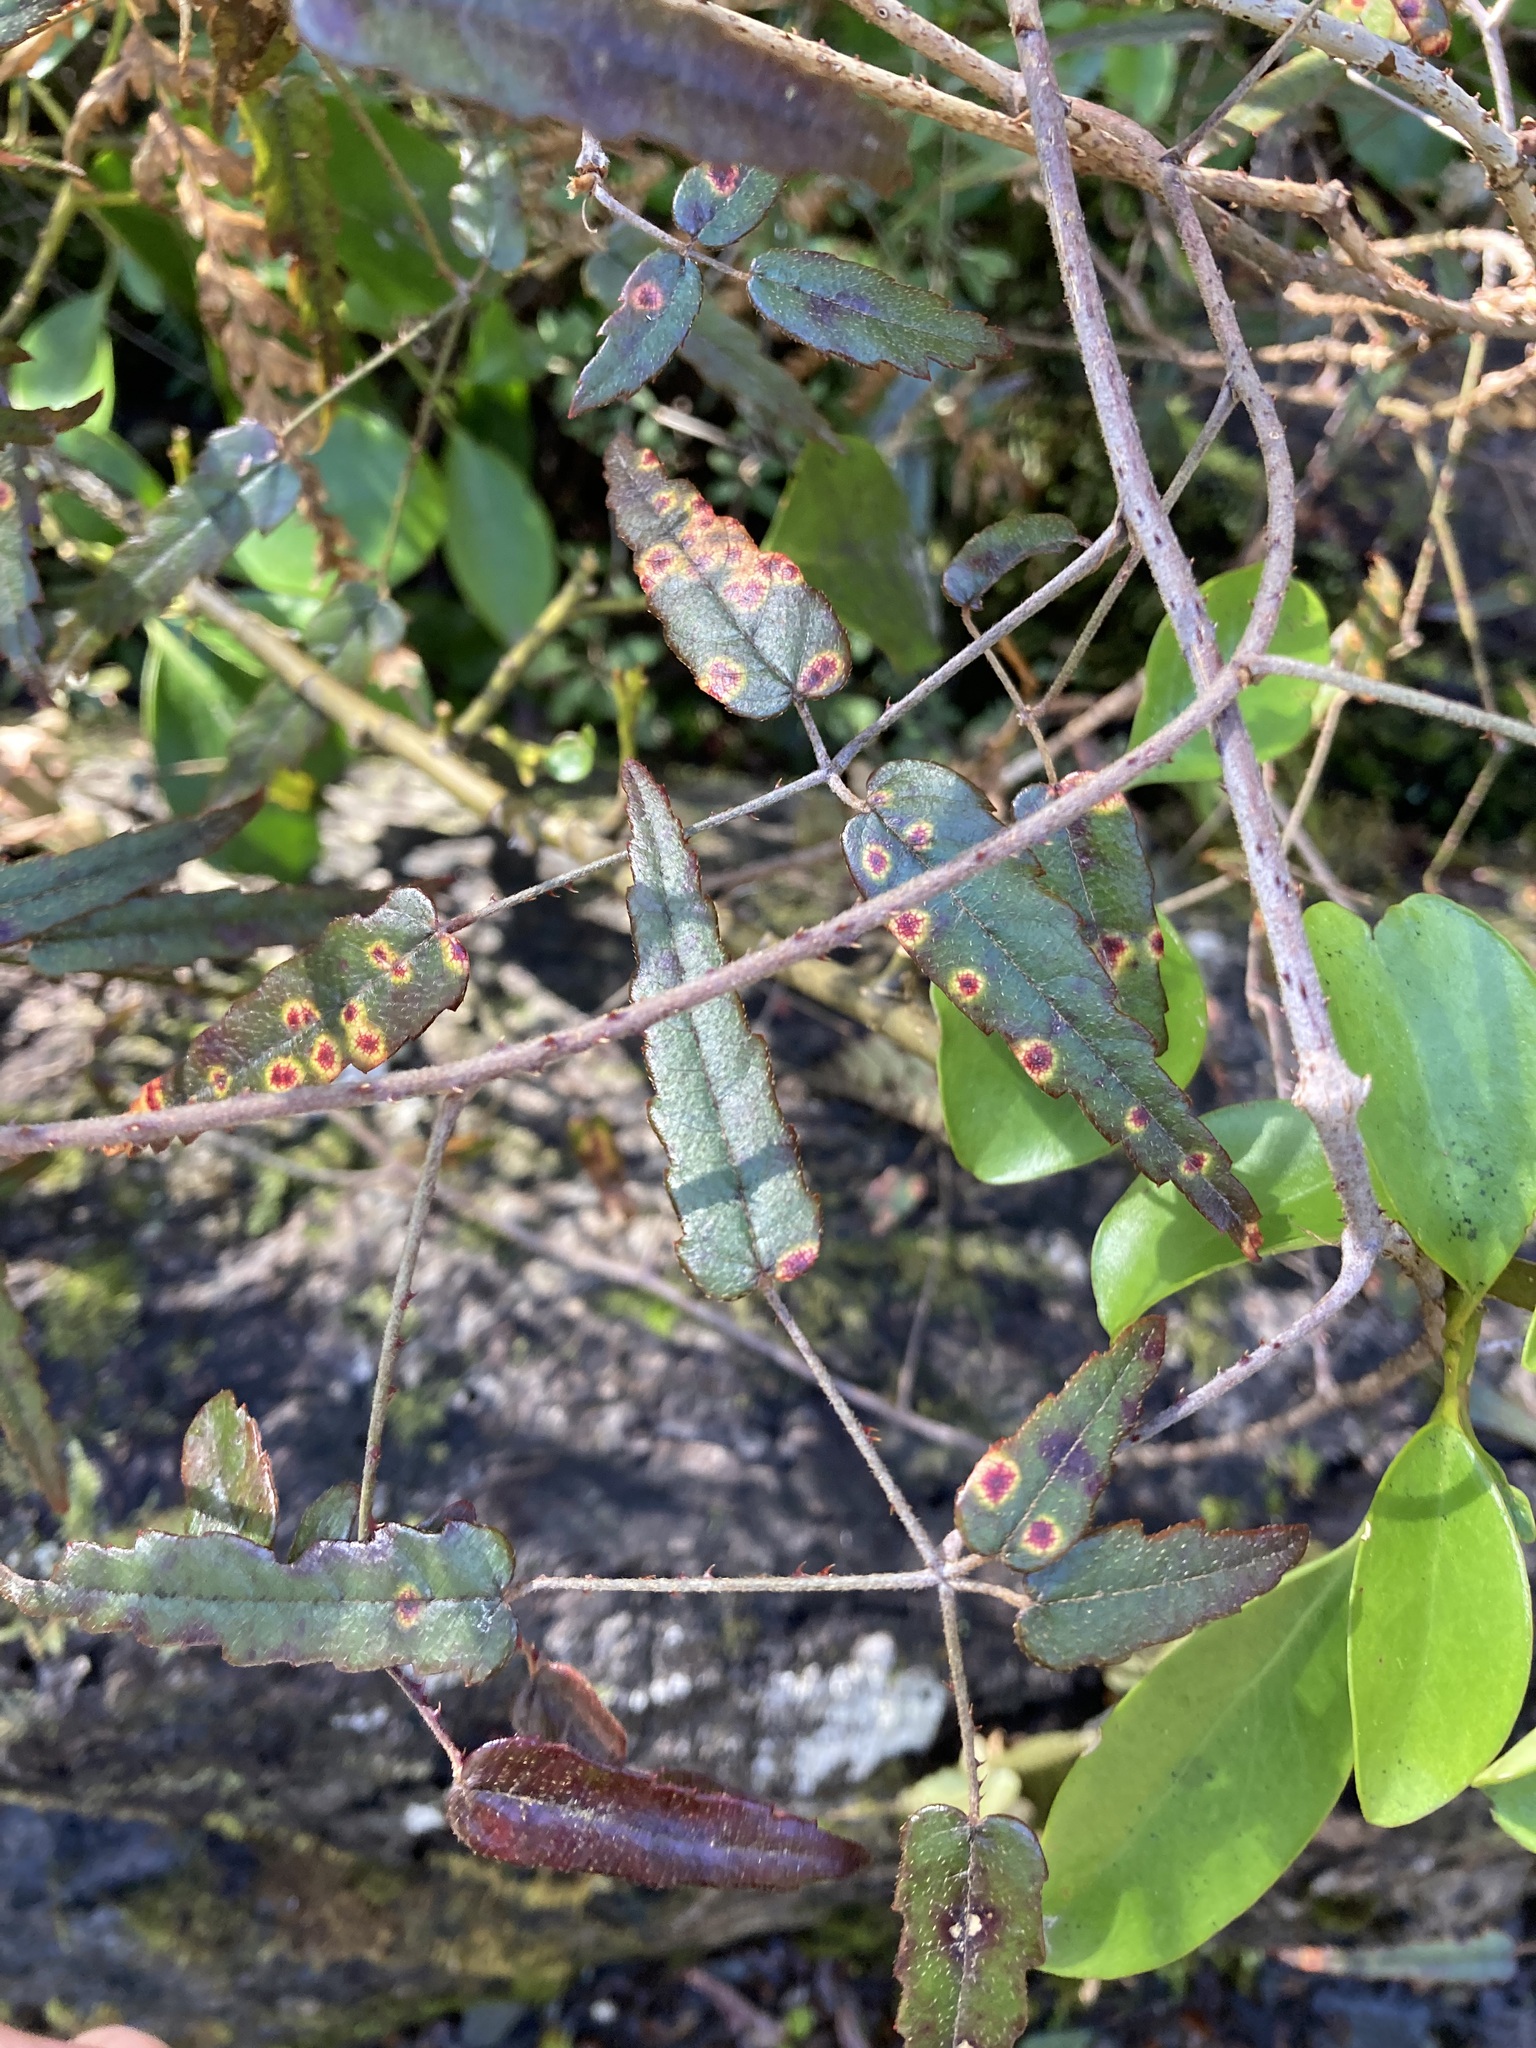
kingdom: Plantae
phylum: Tracheophyta
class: Magnoliopsida
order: Rosales
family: Rosaceae
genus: Rubus
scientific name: Rubus schmidelioides
